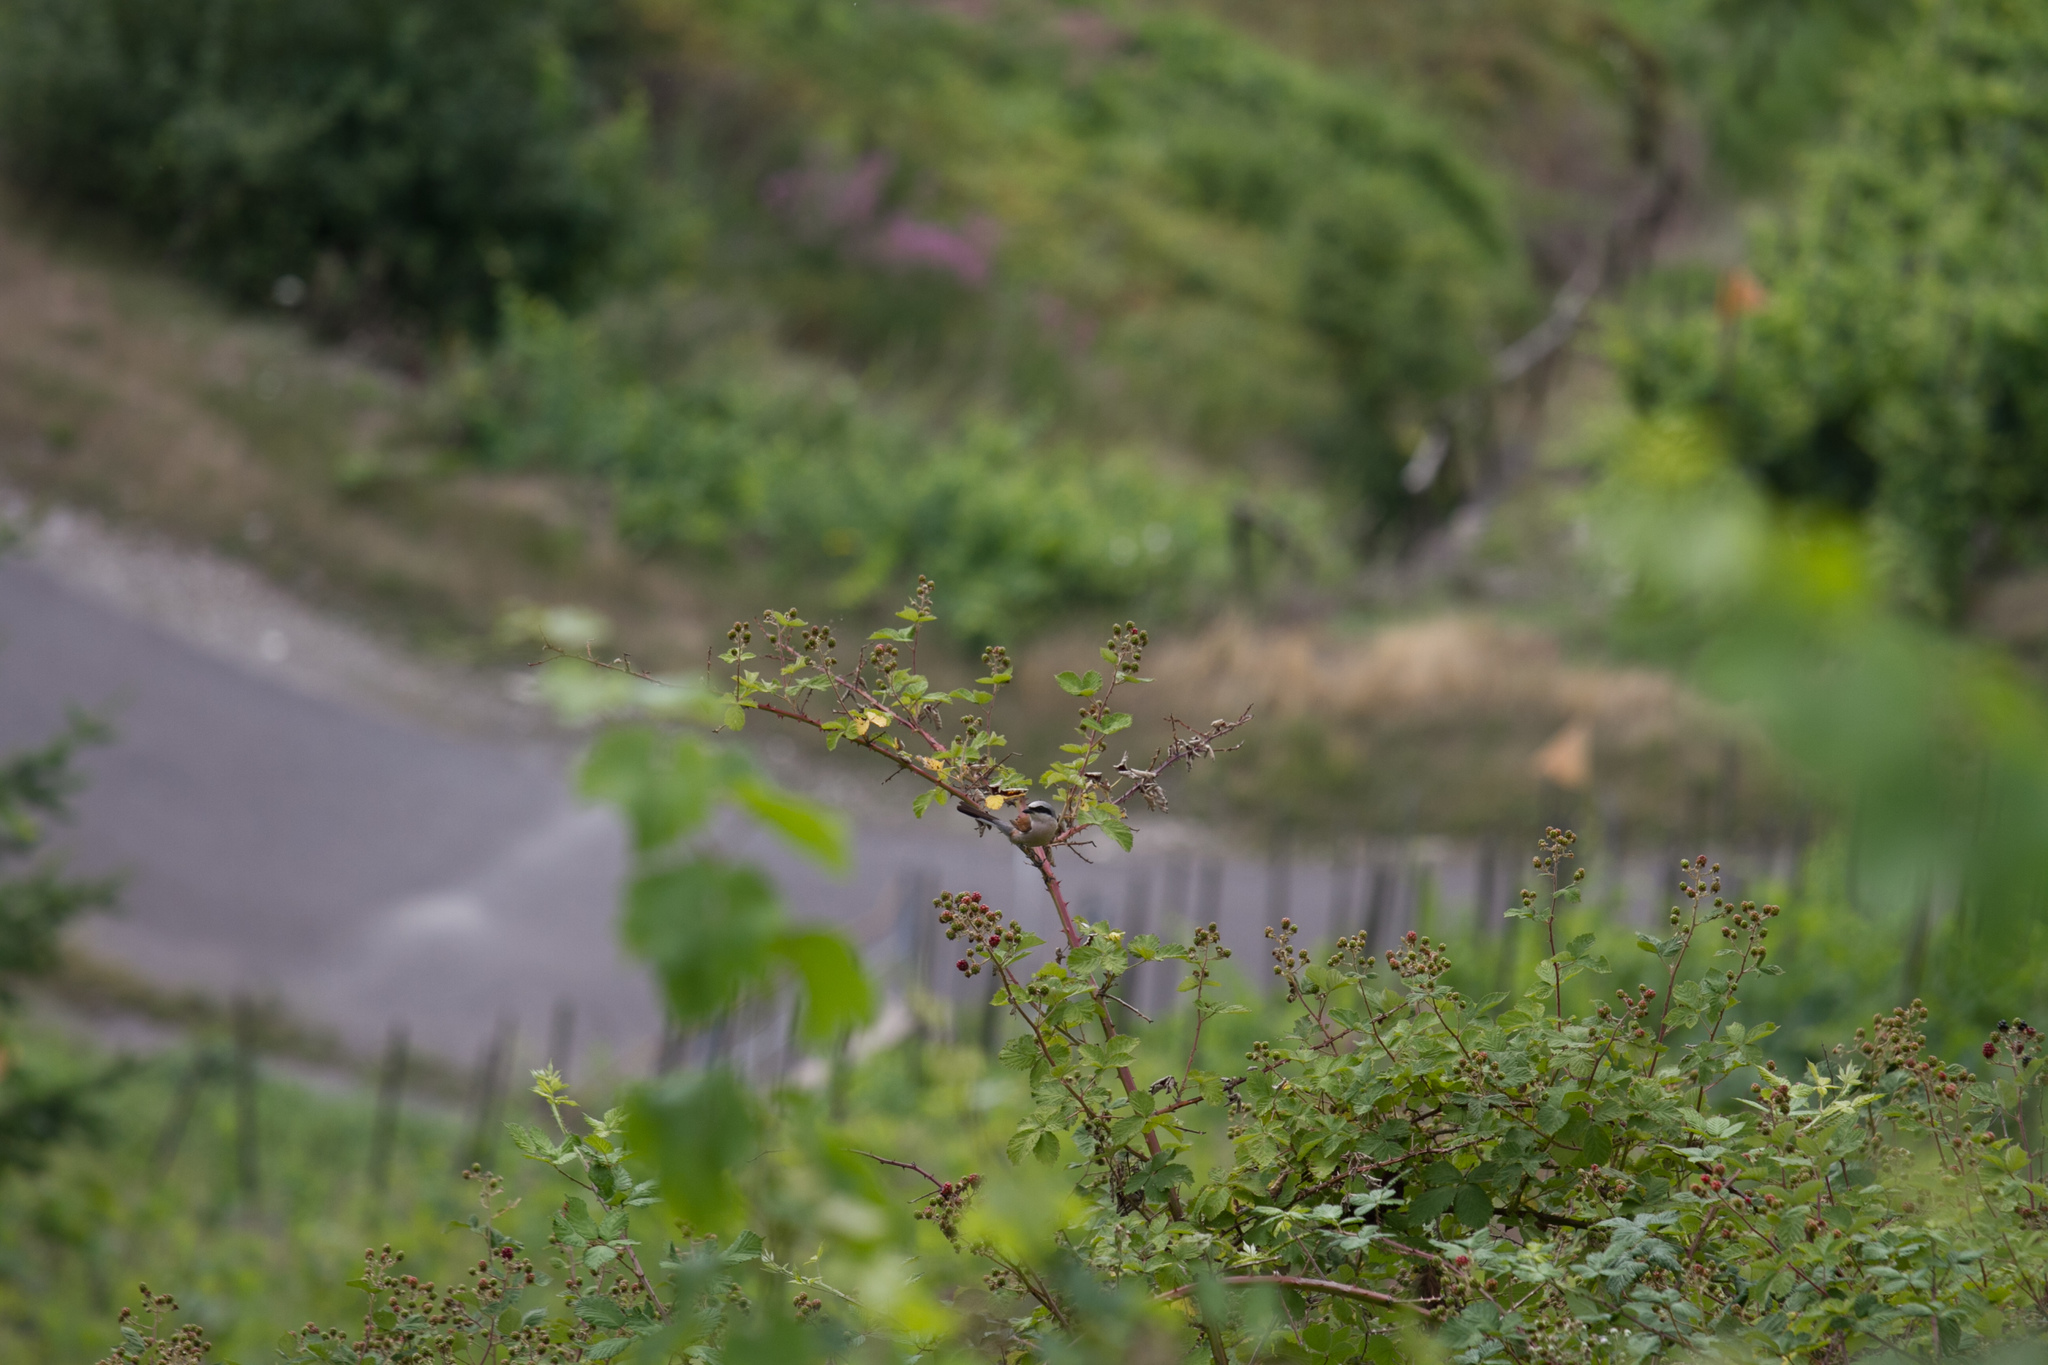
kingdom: Animalia
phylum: Chordata
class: Aves
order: Passeriformes
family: Laniidae
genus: Lanius
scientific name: Lanius collurio
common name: Red-backed shrike
